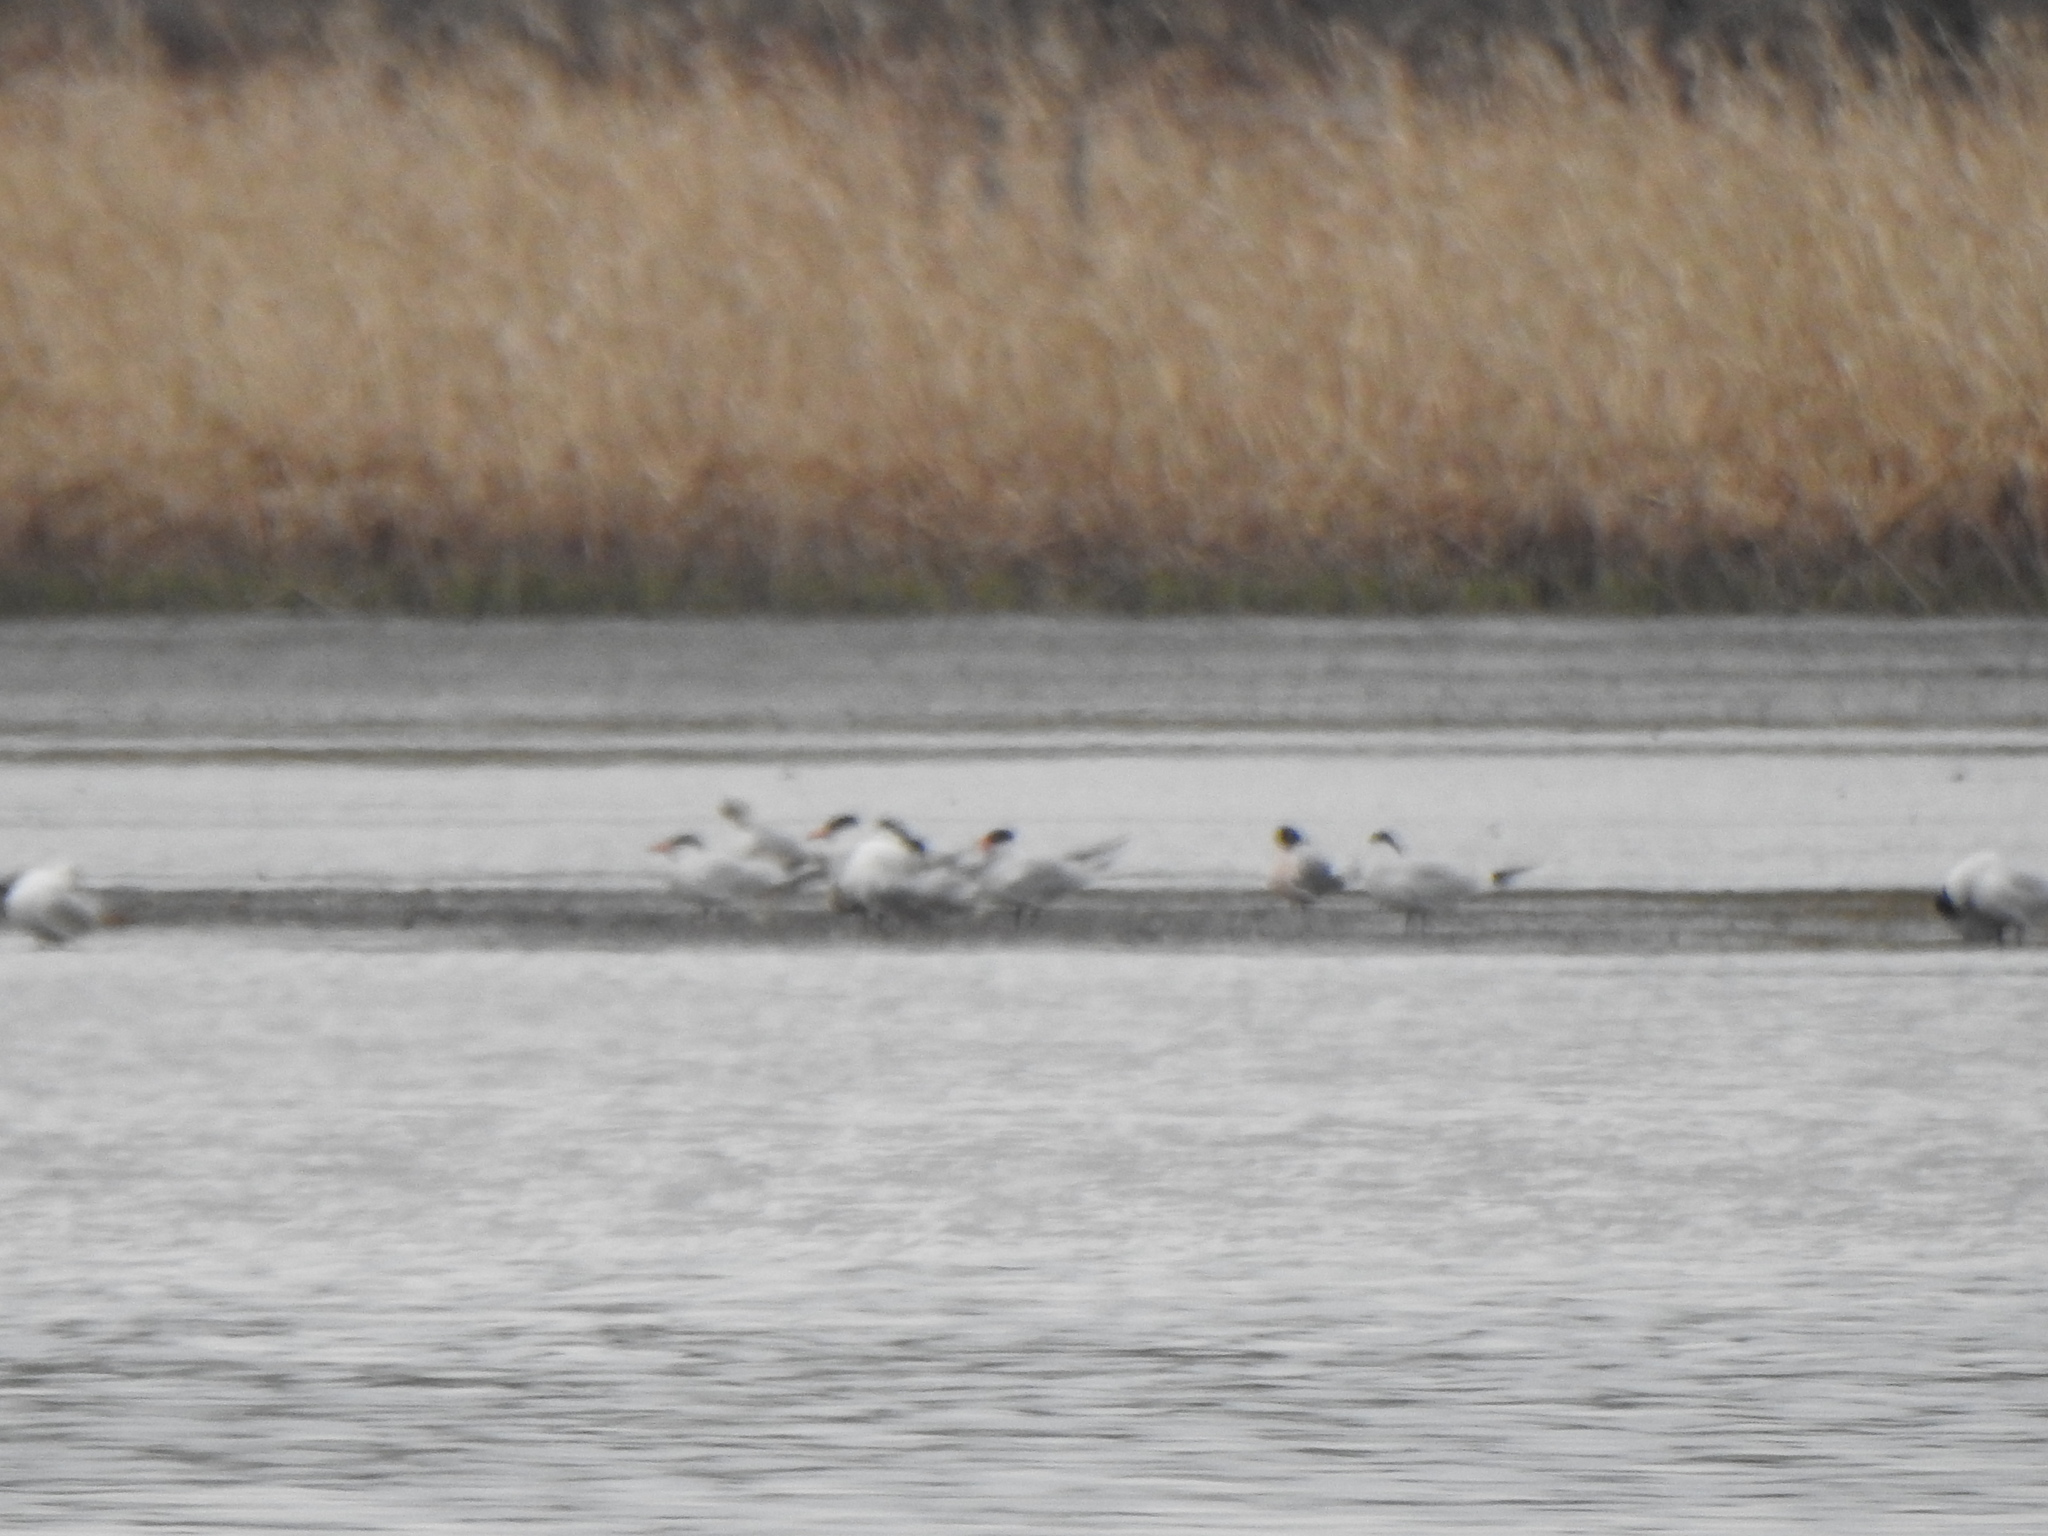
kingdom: Animalia
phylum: Chordata
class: Aves
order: Charadriiformes
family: Laridae
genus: Hydroprogne
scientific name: Hydroprogne caspia
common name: Caspian tern
